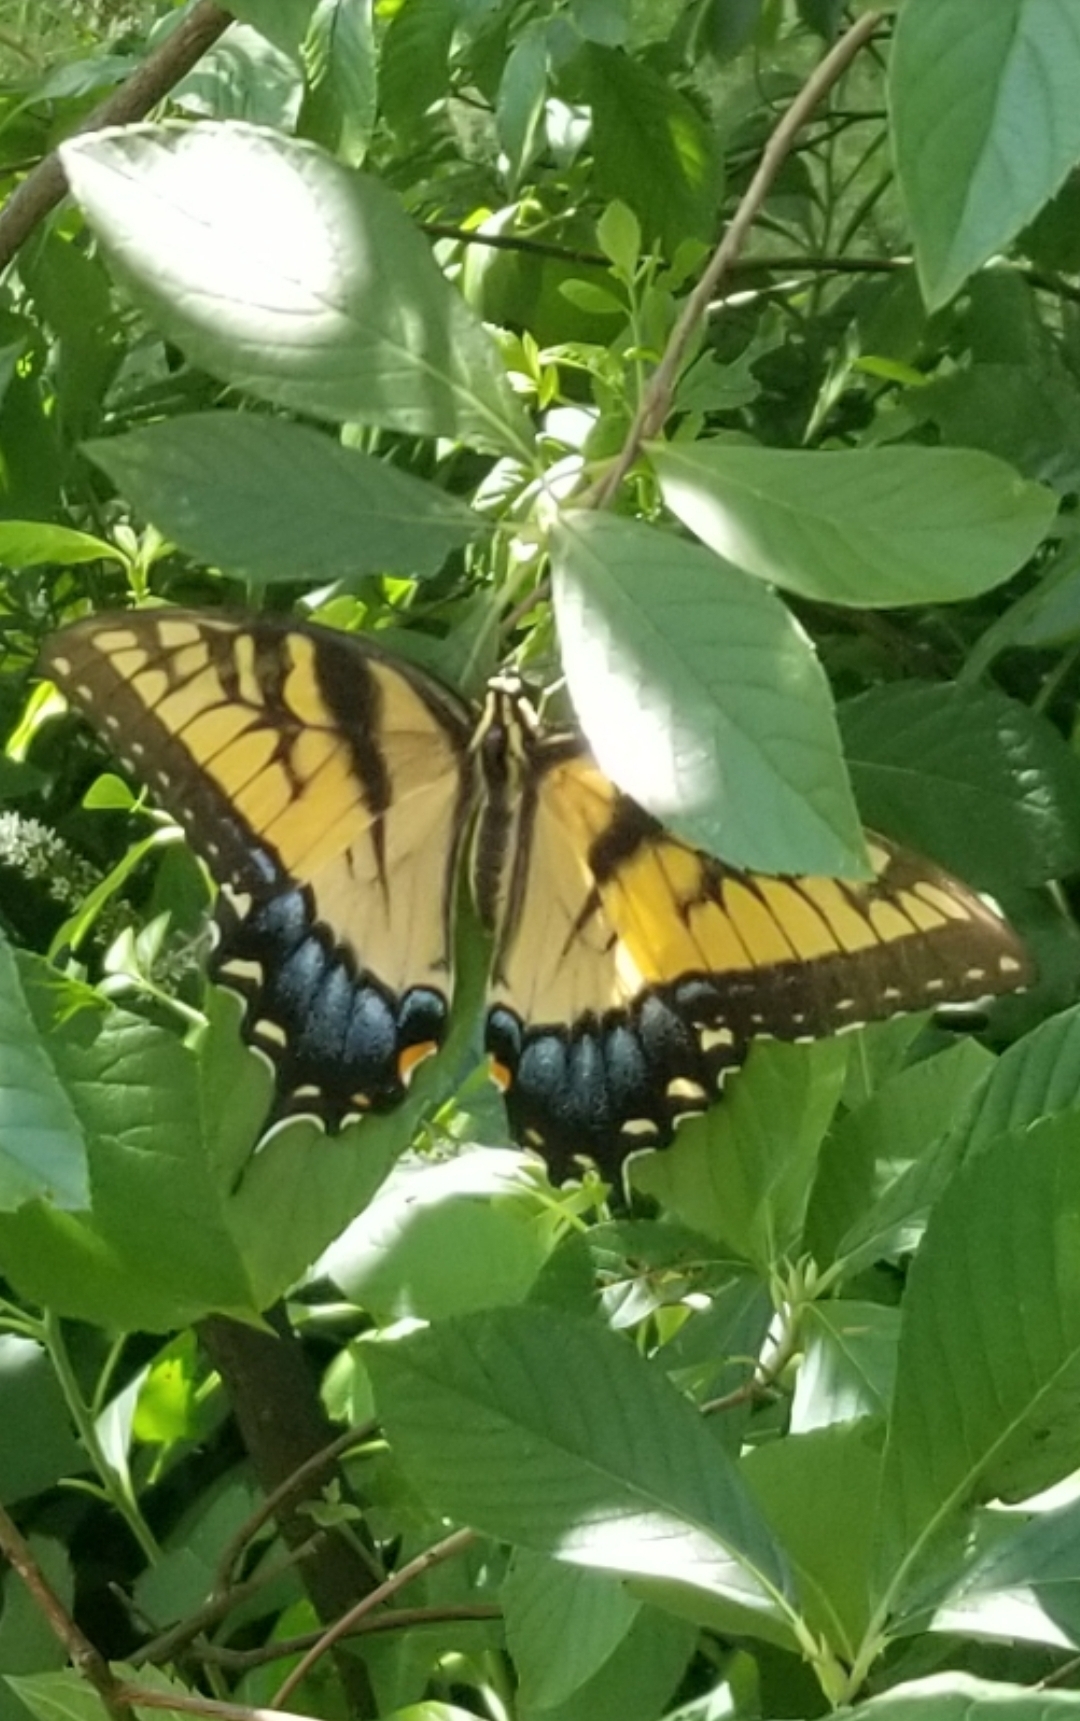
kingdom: Animalia
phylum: Arthropoda
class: Insecta
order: Lepidoptera
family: Papilionidae
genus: Papilio
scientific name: Papilio glaucus
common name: Tiger swallowtail
